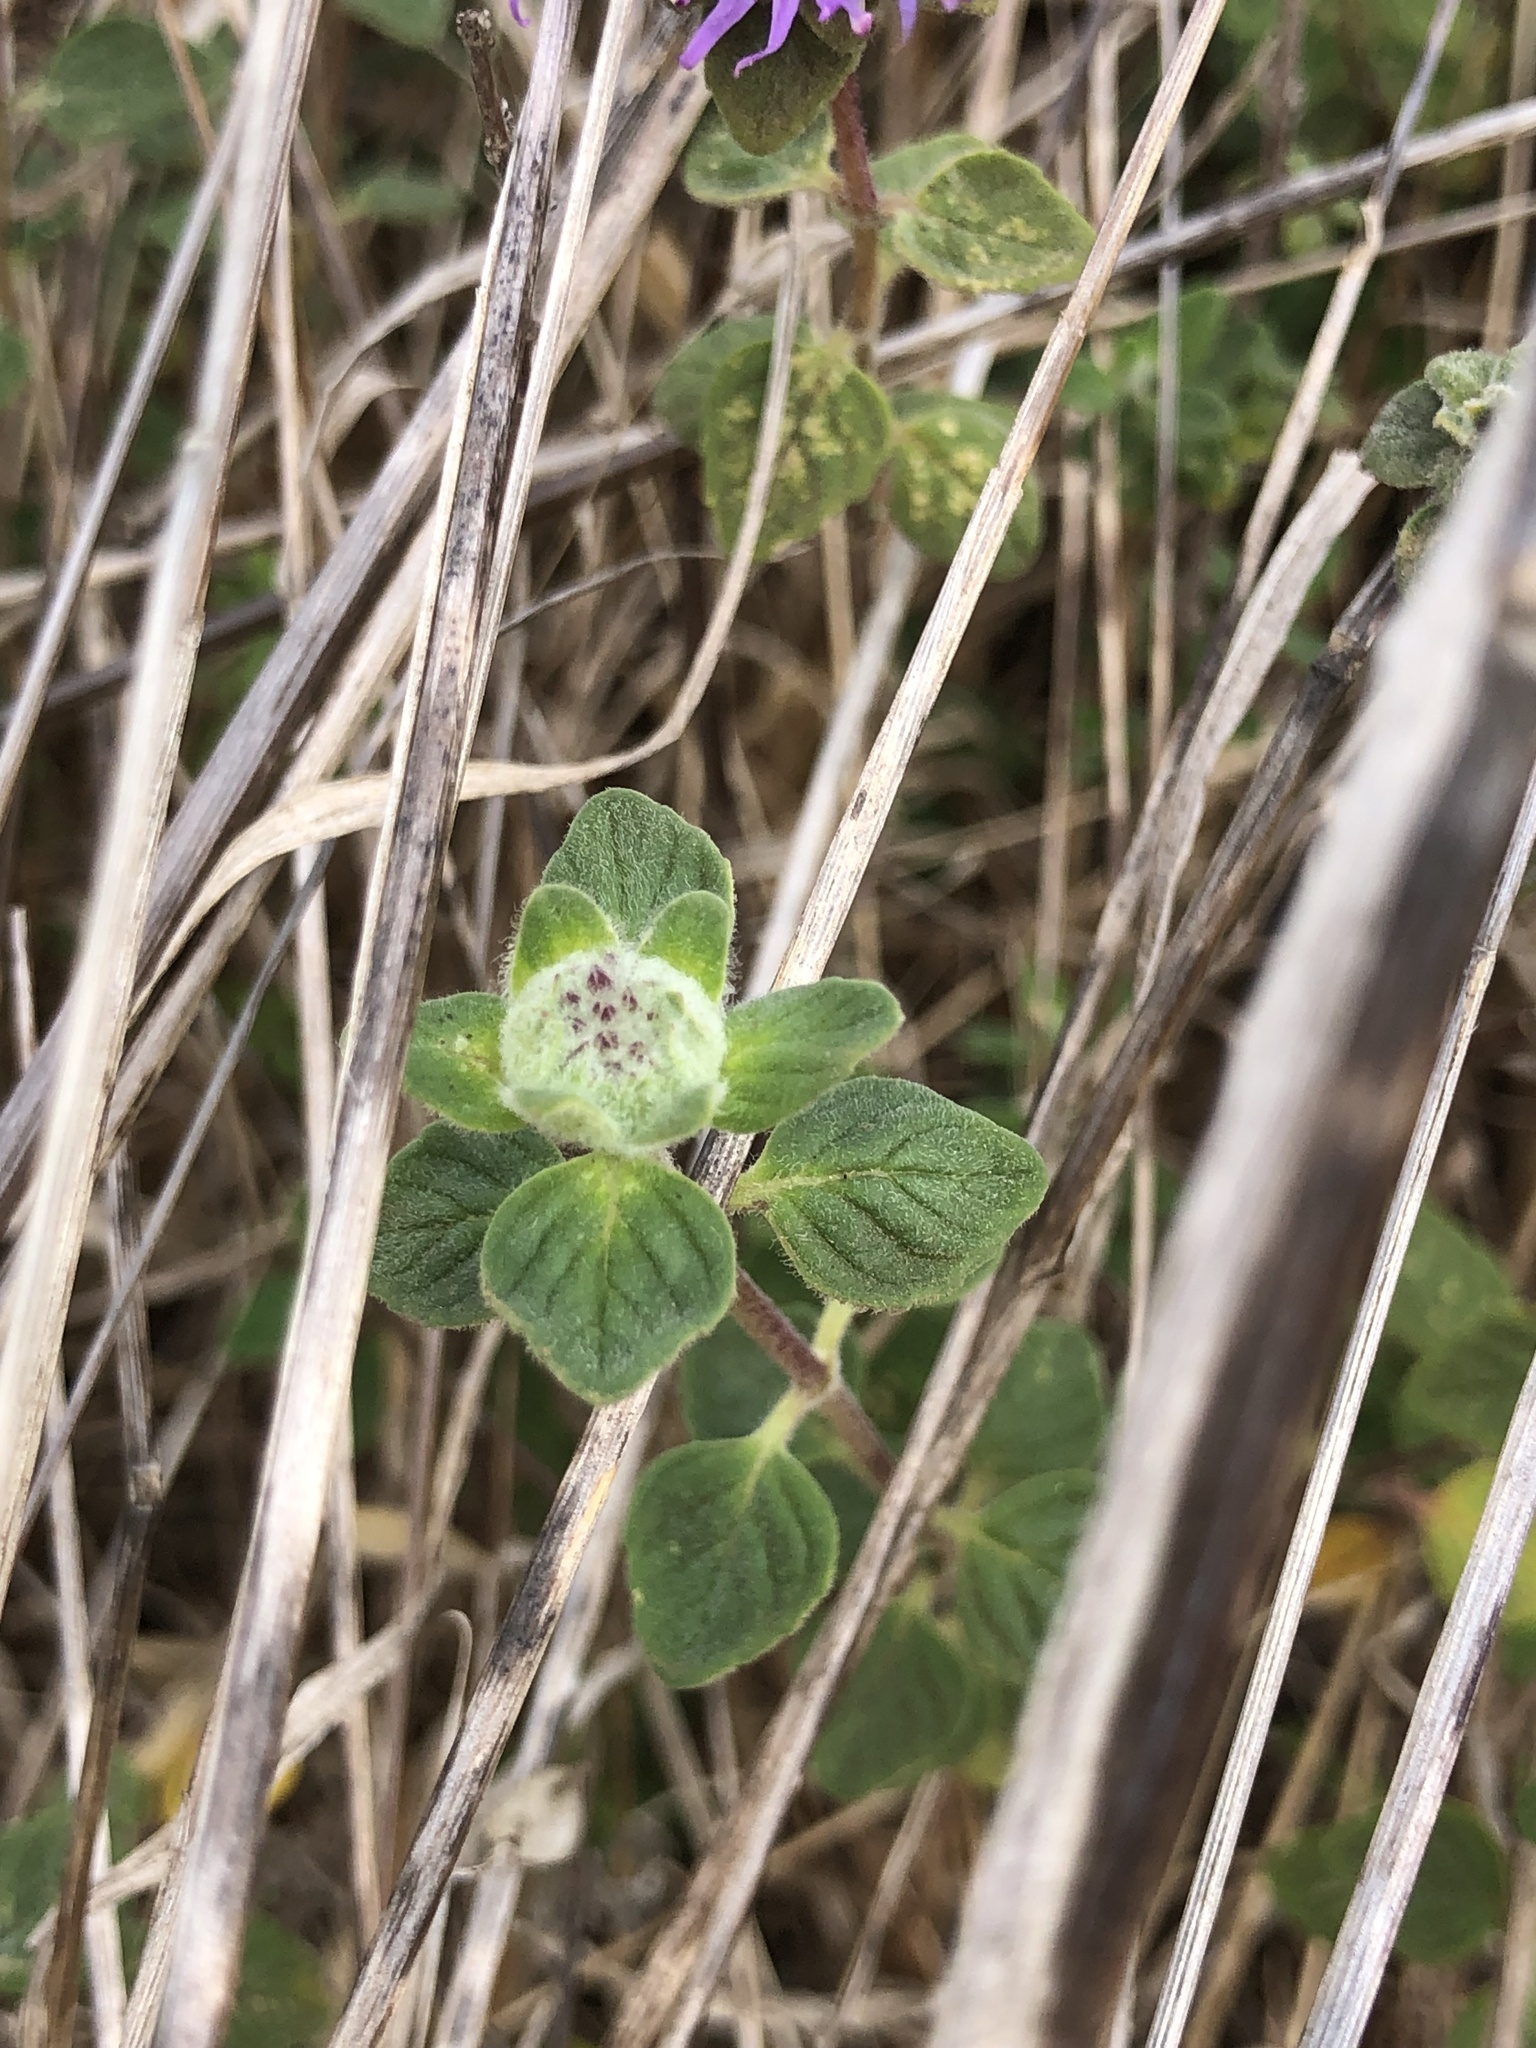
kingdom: Plantae
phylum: Tracheophyta
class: Magnoliopsida
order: Lamiales
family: Lamiaceae
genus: Monardella
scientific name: Monardella odoratissima
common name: Pacific monardella
